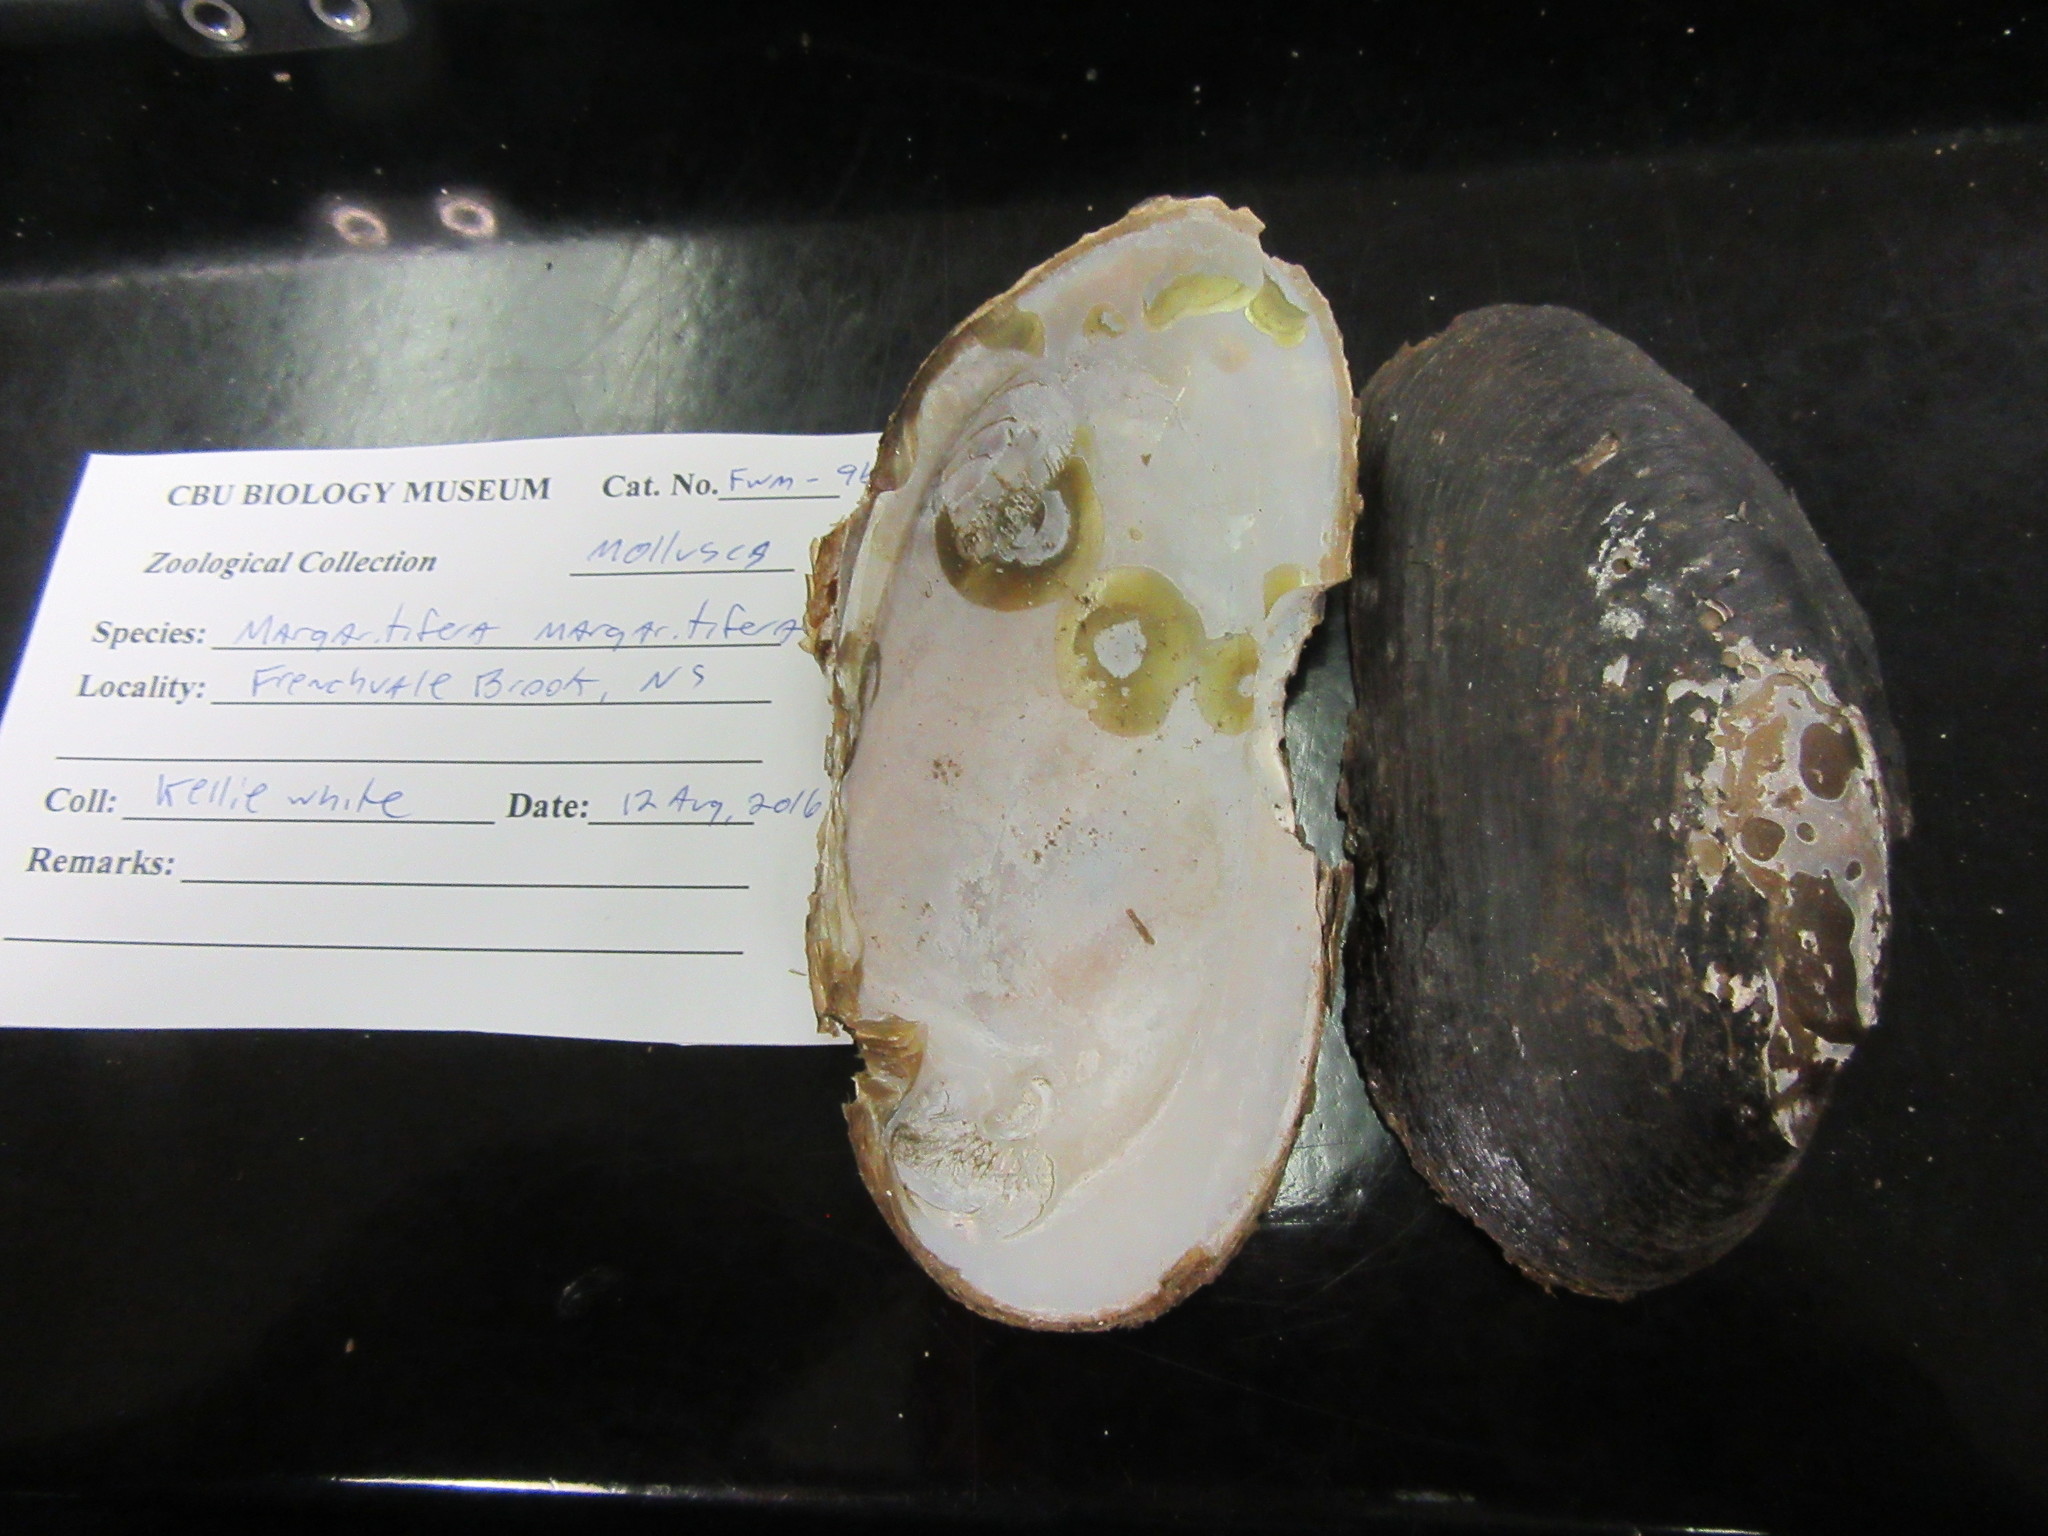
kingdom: Animalia
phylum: Mollusca
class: Bivalvia
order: Unionida
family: Margaritiferidae
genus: Margaritifera
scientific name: Margaritifera margaritifera
